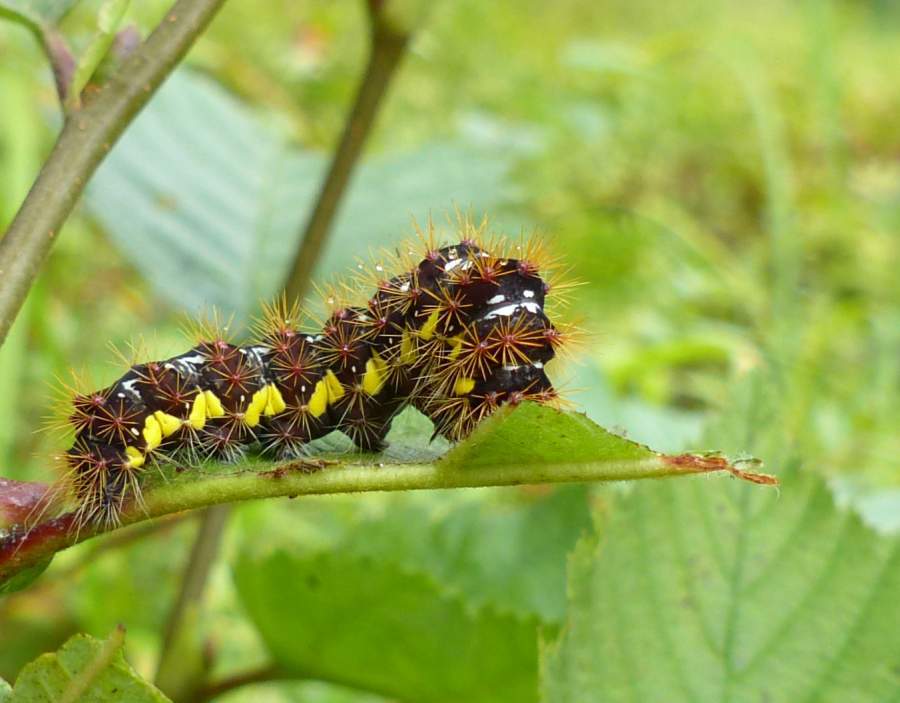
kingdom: Animalia
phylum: Arthropoda
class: Insecta
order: Lepidoptera
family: Noctuidae
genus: Acronicta
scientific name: Acronicta oblinita
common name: Smeared dagger
